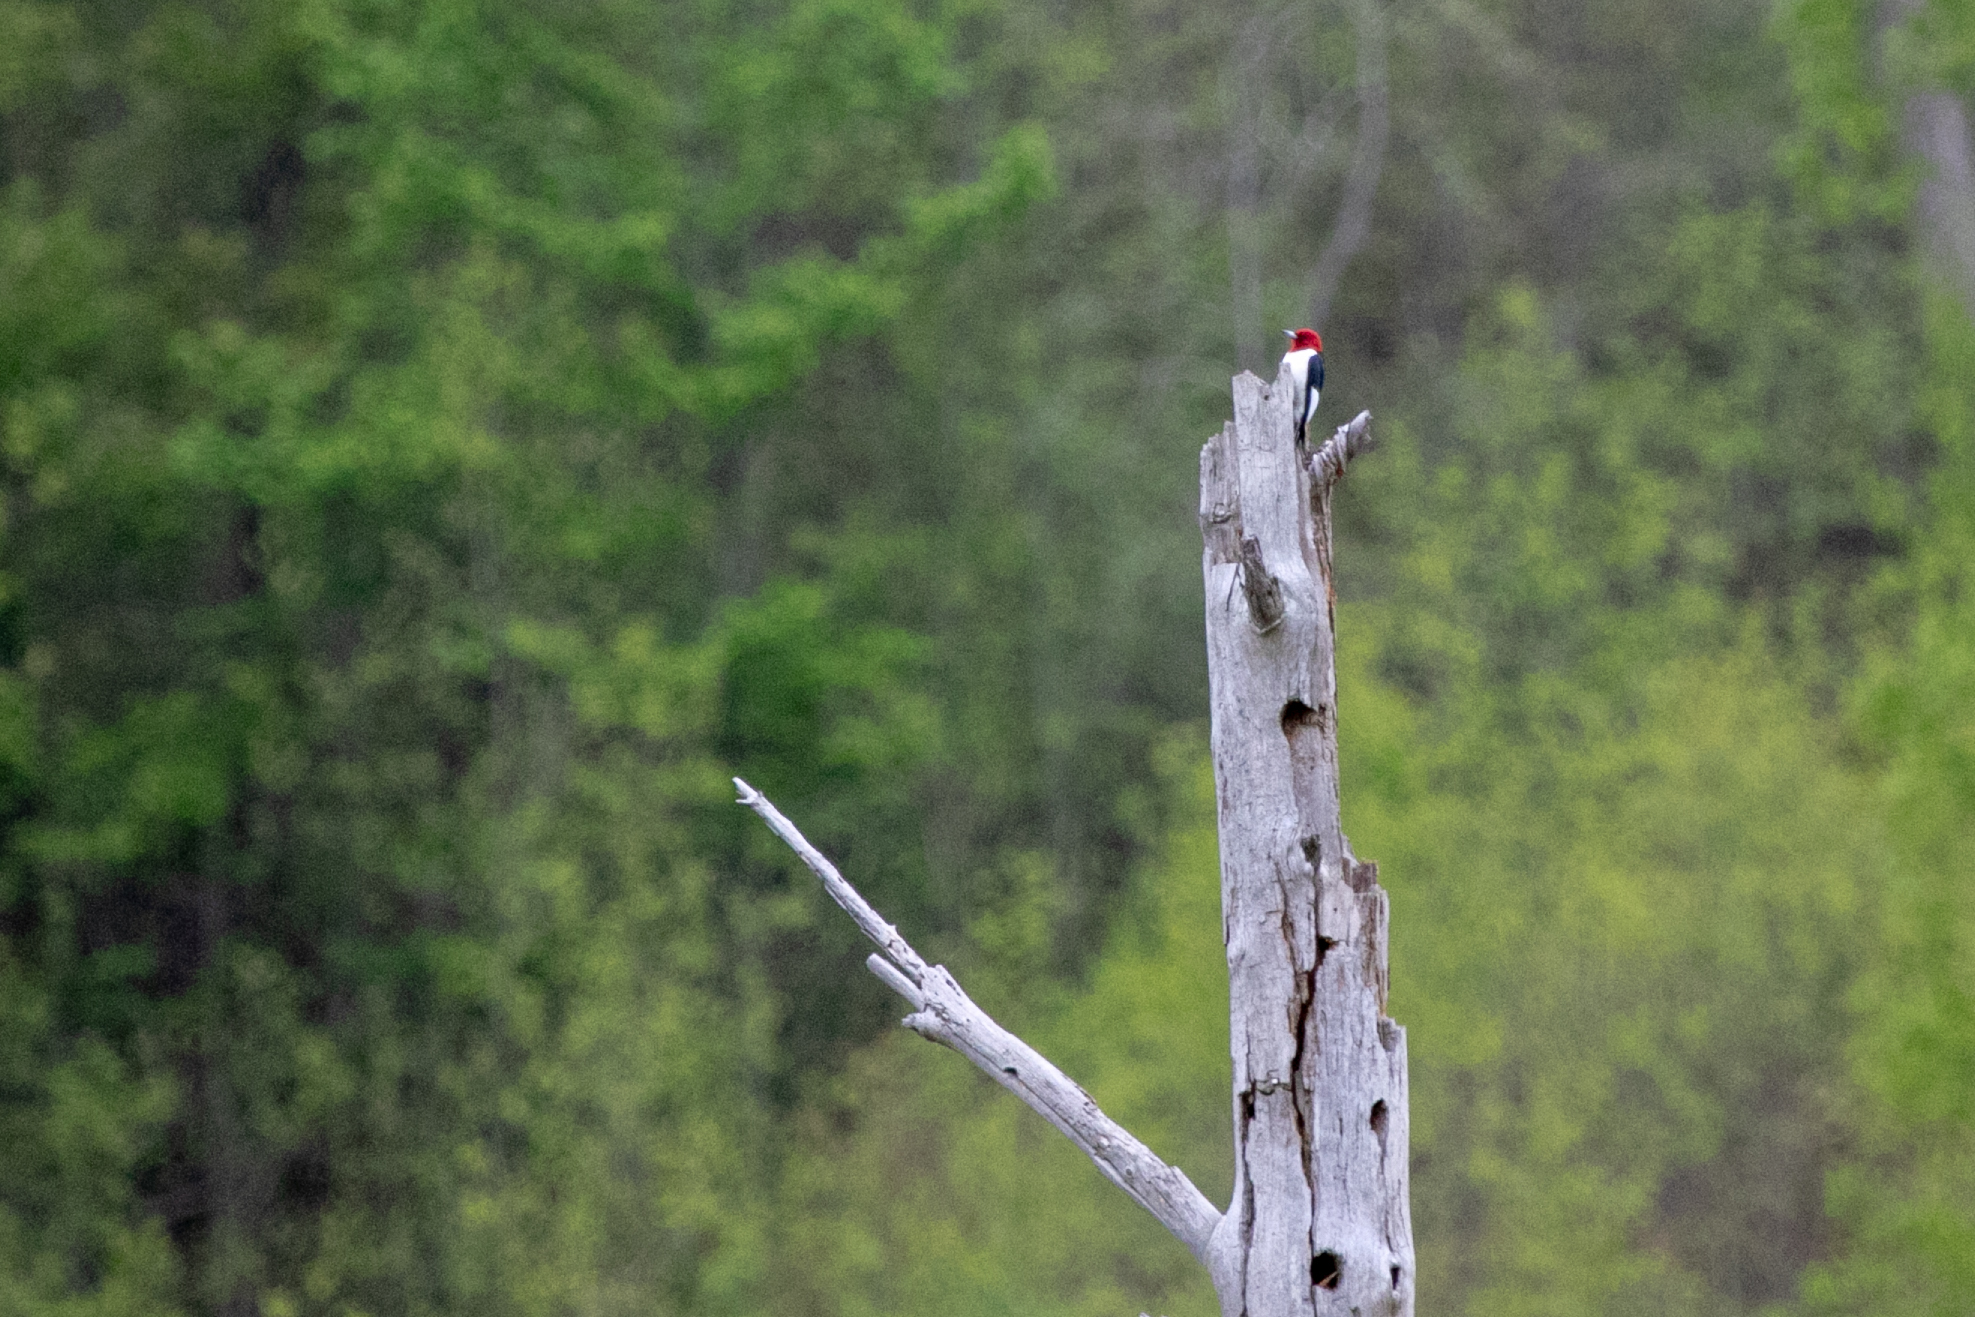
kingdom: Animalia
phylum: Chordata
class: Aves
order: Piciformes
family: Picidae
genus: Melanerpes
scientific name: Melanerpes erythrocephalus
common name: Red-headed woodpecker
